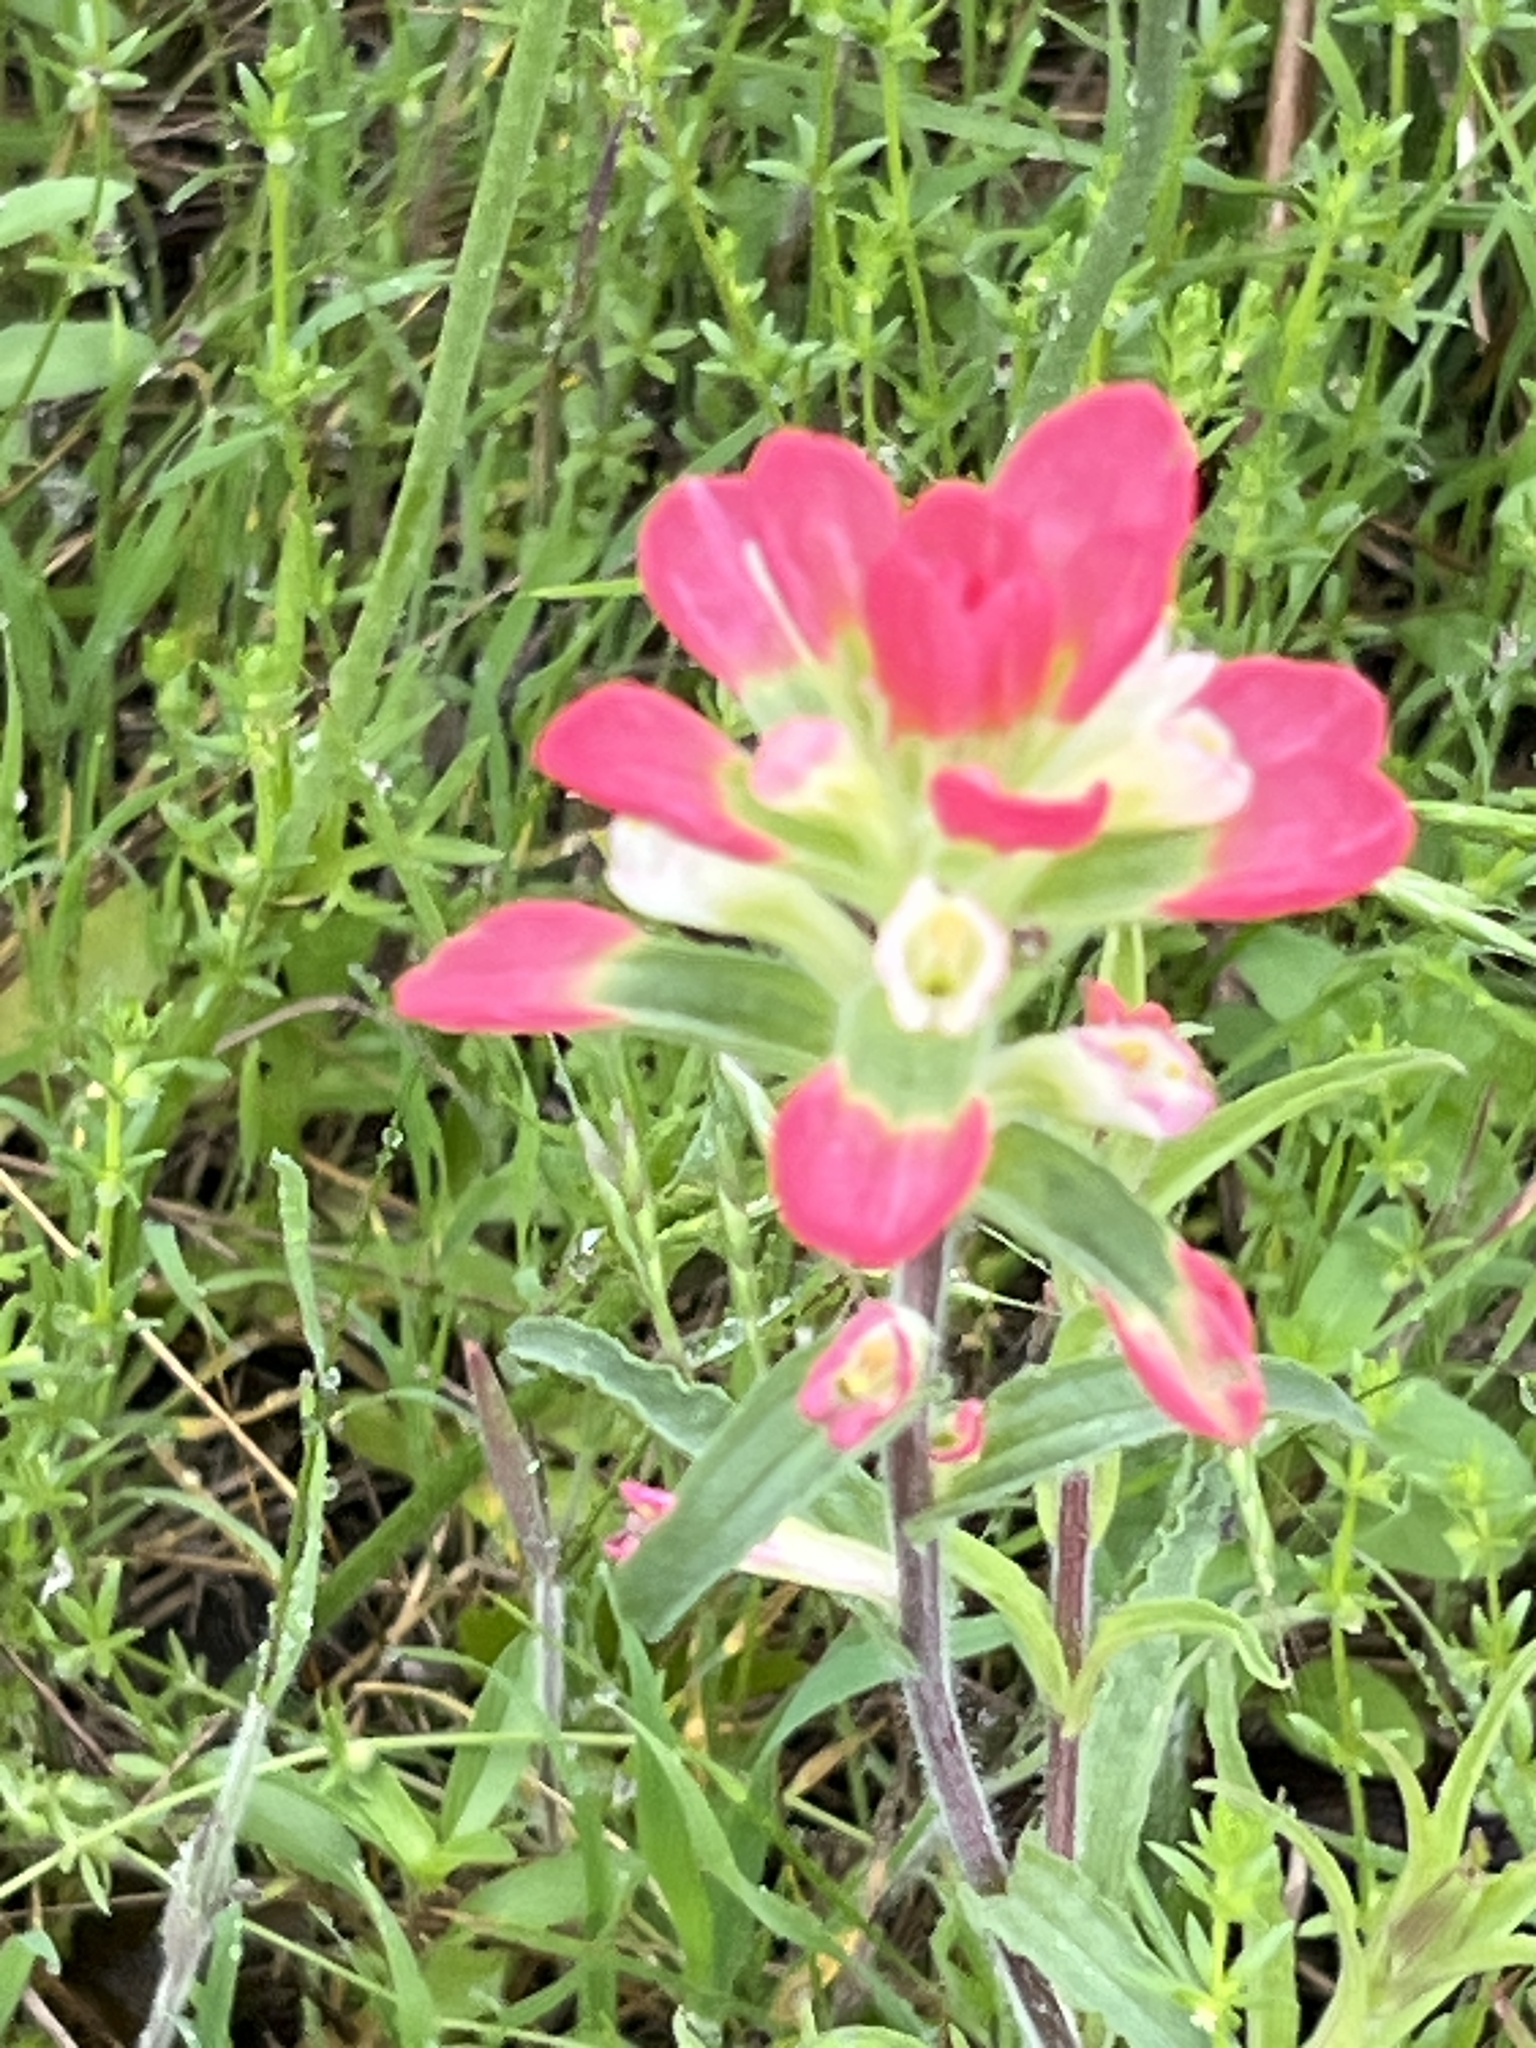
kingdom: Plantae
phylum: Tracheophyta
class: Magnoliopsida
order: Lamiales
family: Orobanchaceae
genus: Castilleja
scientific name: Castilleja indivisa
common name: Texas paintbrush
